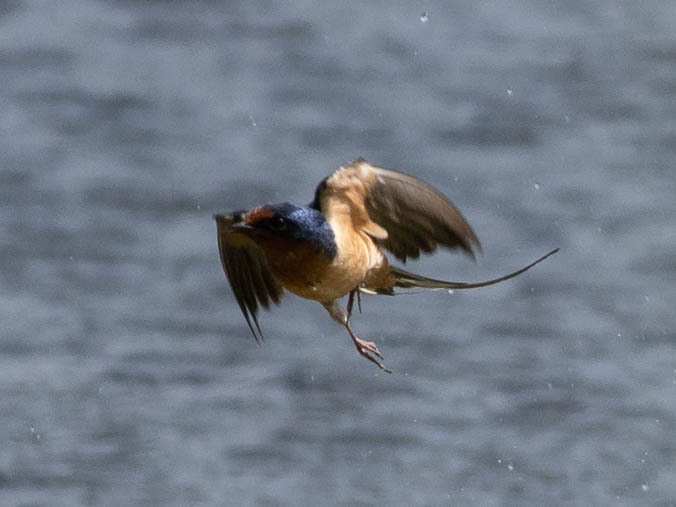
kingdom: Animalia
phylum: Chordata
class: Aves
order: Passeriformes
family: Hirundinidae
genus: Hirundo
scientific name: Hirundo rustica
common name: Barn swallow
